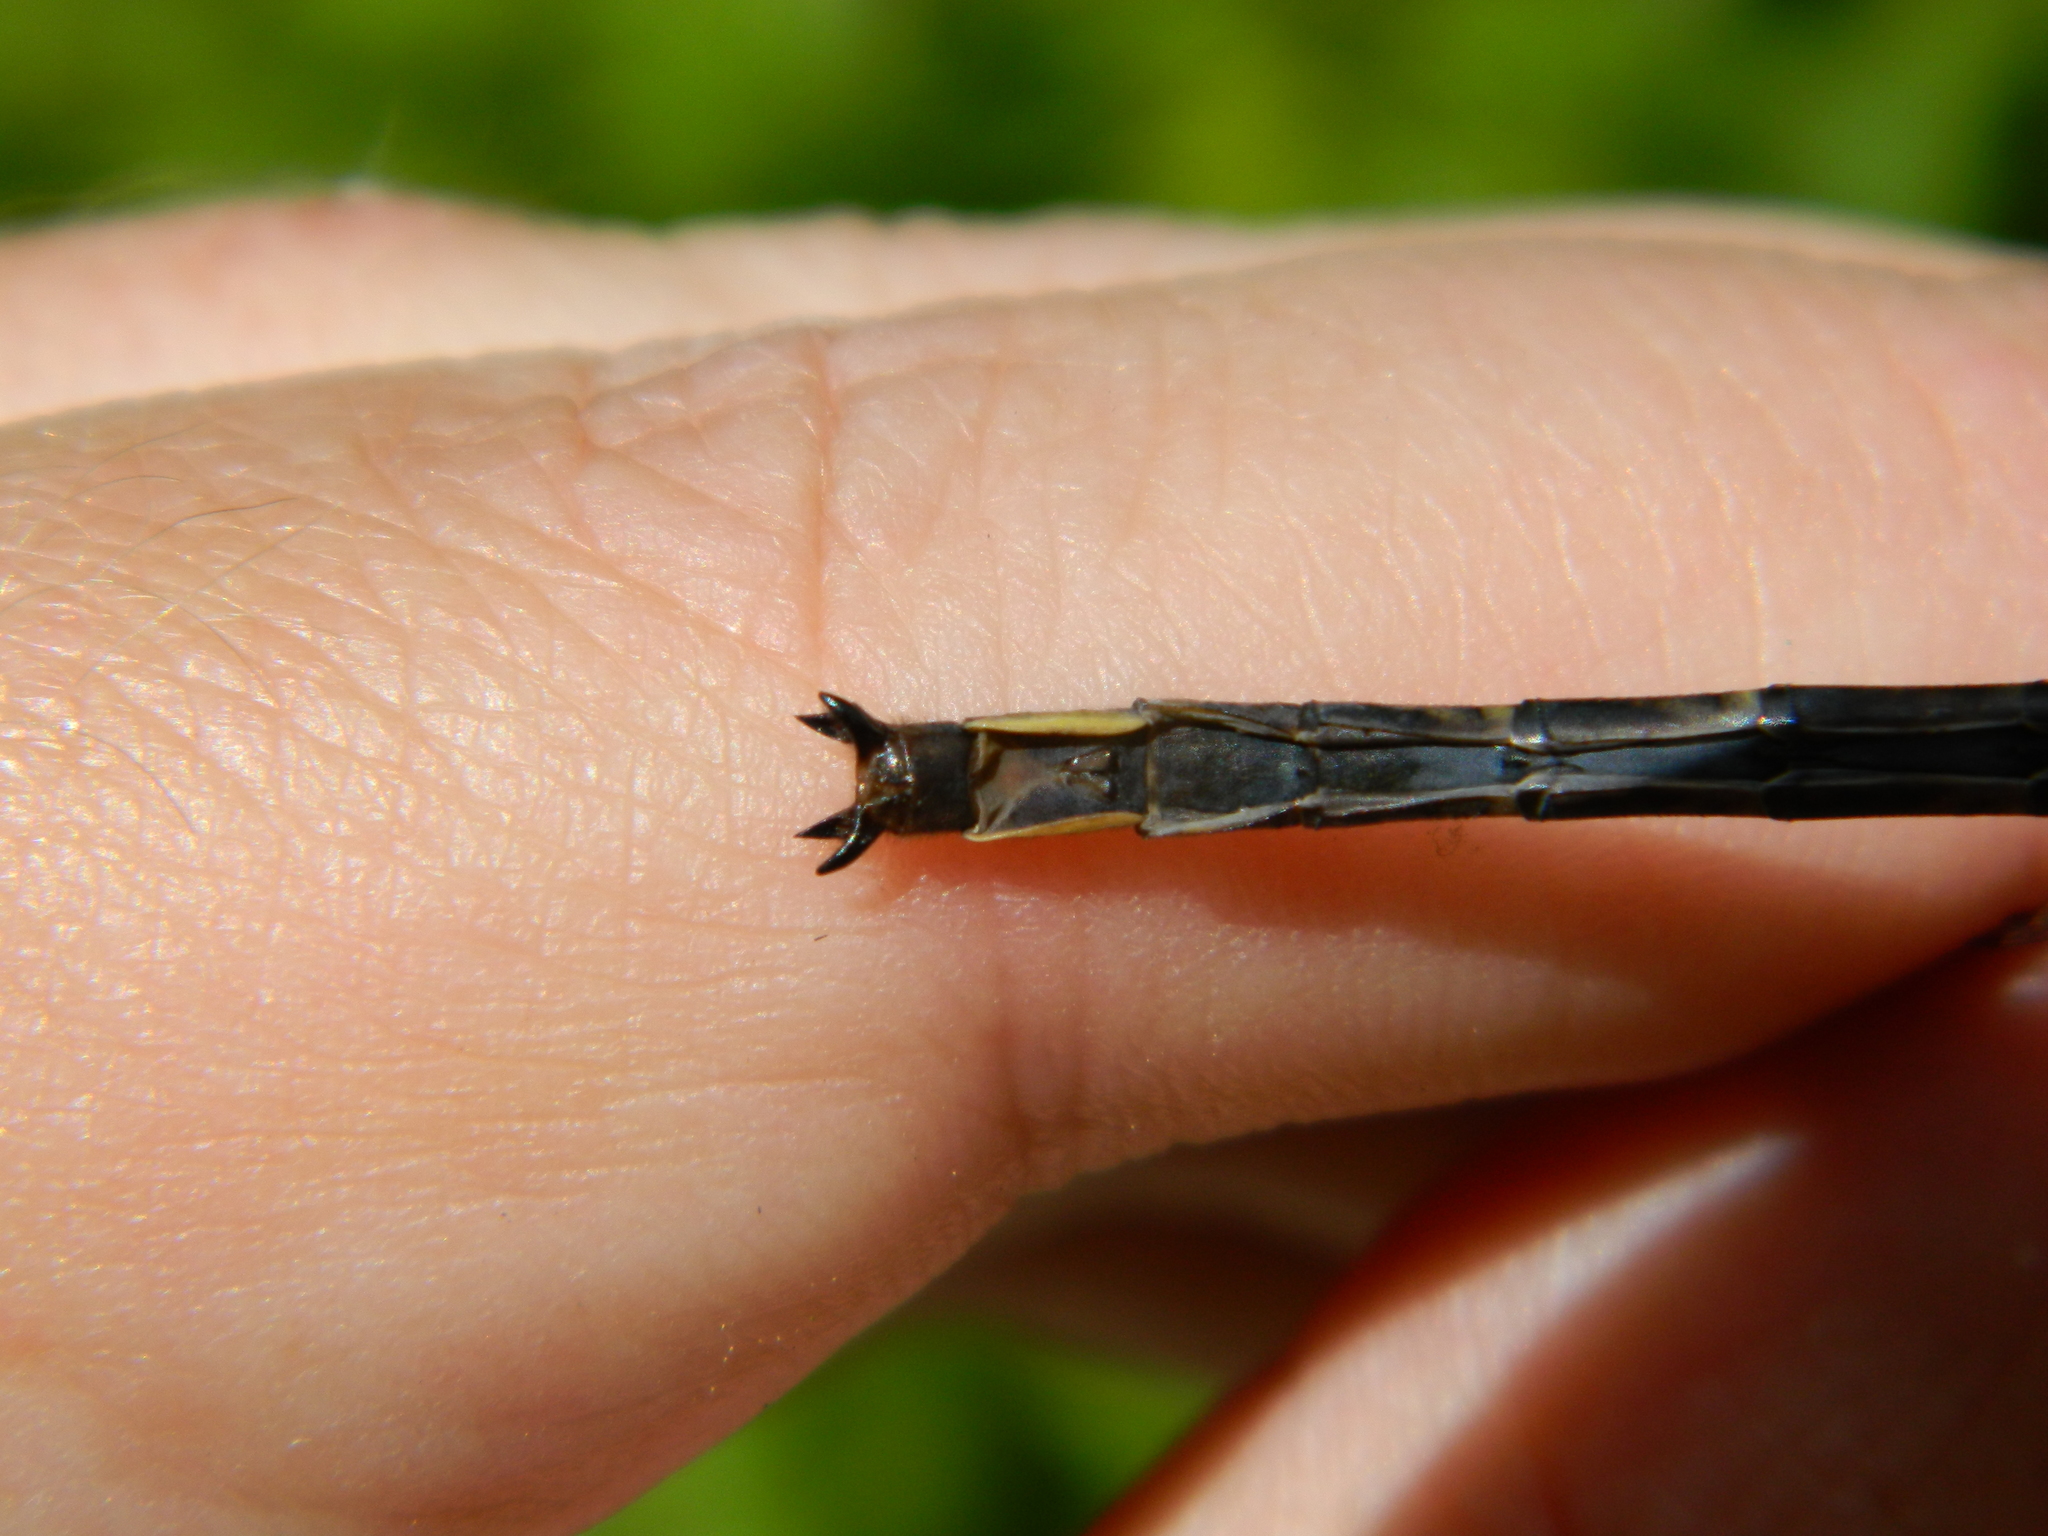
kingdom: Animalia
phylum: Arthropoda
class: Insecta
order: Odonata
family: Gomphidae
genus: Phanogomphus
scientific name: Phanogomphus spicatus
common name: Dusky clubtail
